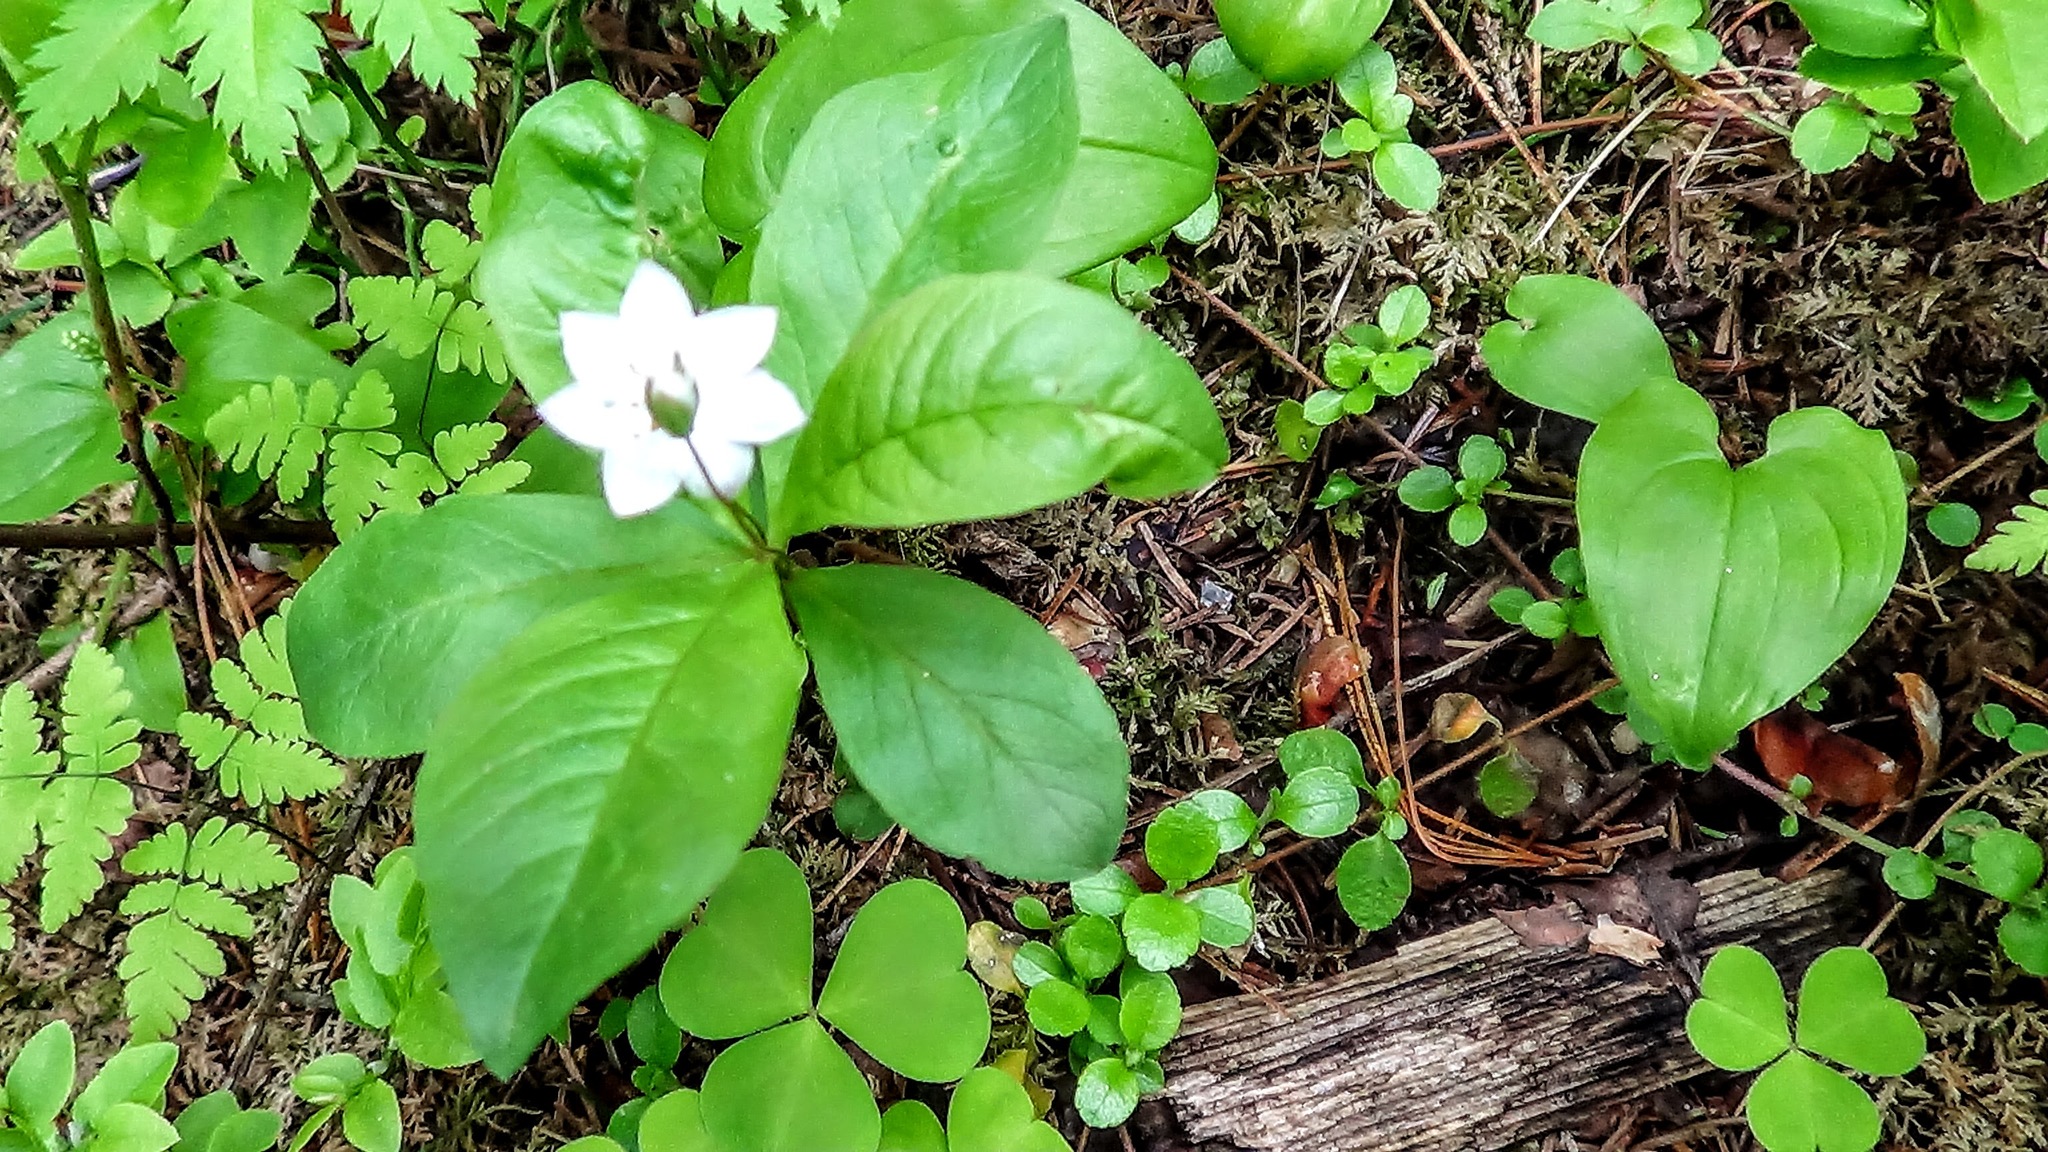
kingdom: Plantae
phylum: Tracheophyta
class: Magnoliopsida
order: Ericales
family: Primulaceae
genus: Lysimachia
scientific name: Lysimachia europaea
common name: Arctic starflower
